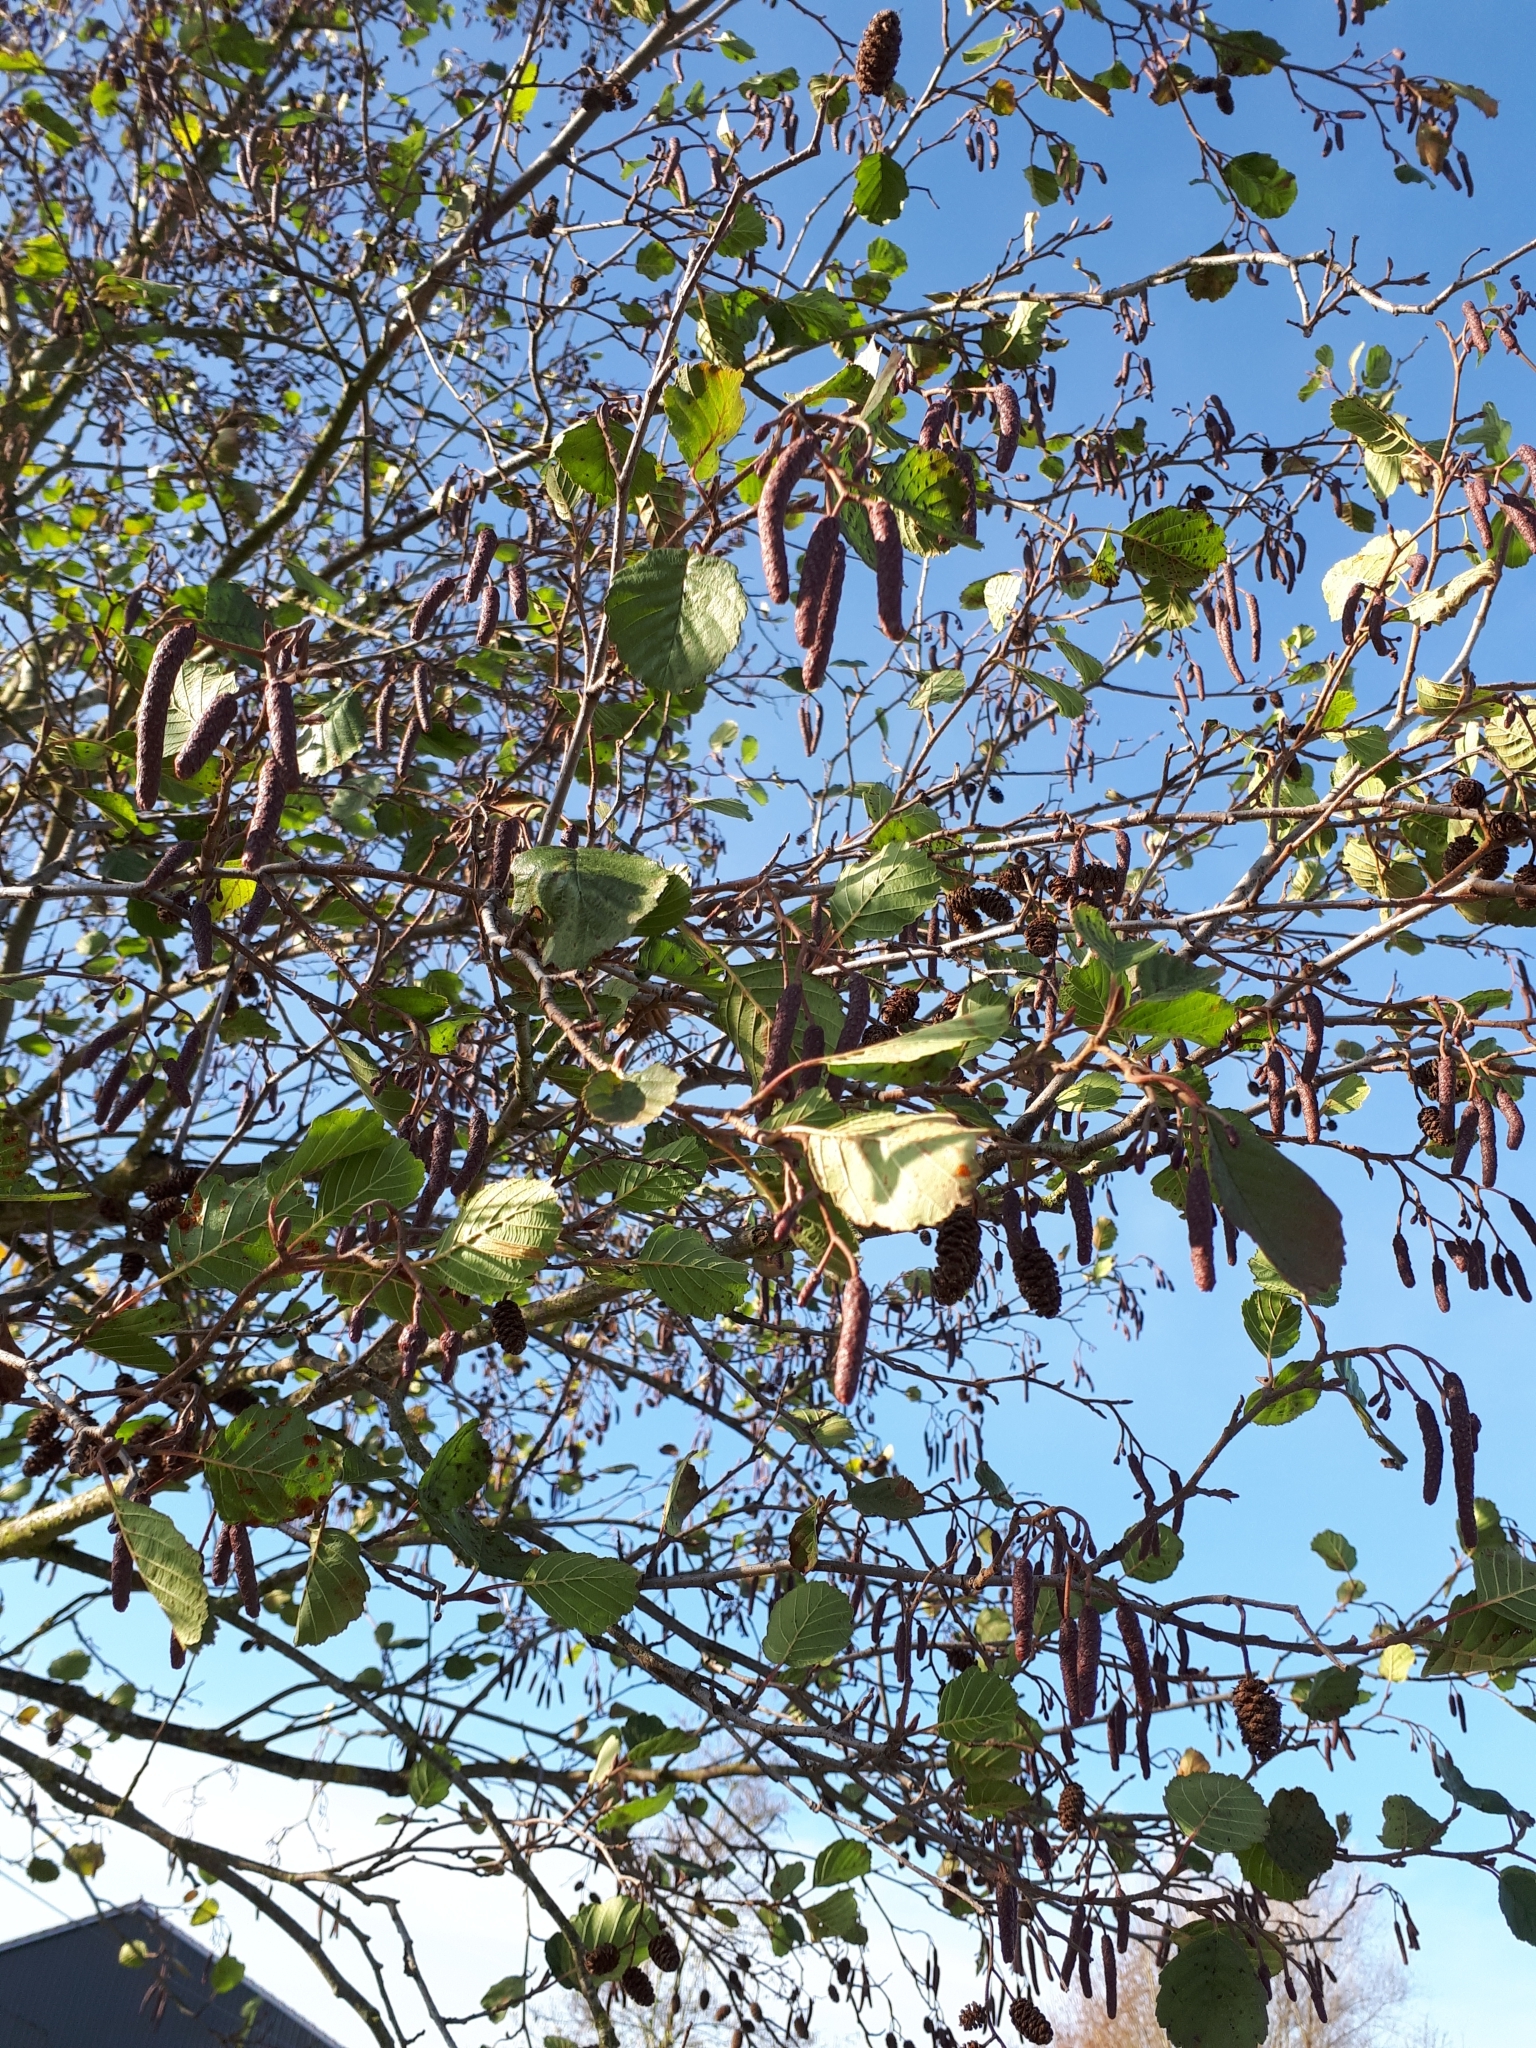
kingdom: Plantae
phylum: Tracheophyta
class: Magnoliopsida
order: Fagales
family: Betulaceae
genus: Alnus
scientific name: Alnus glutinosa
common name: Black alder
